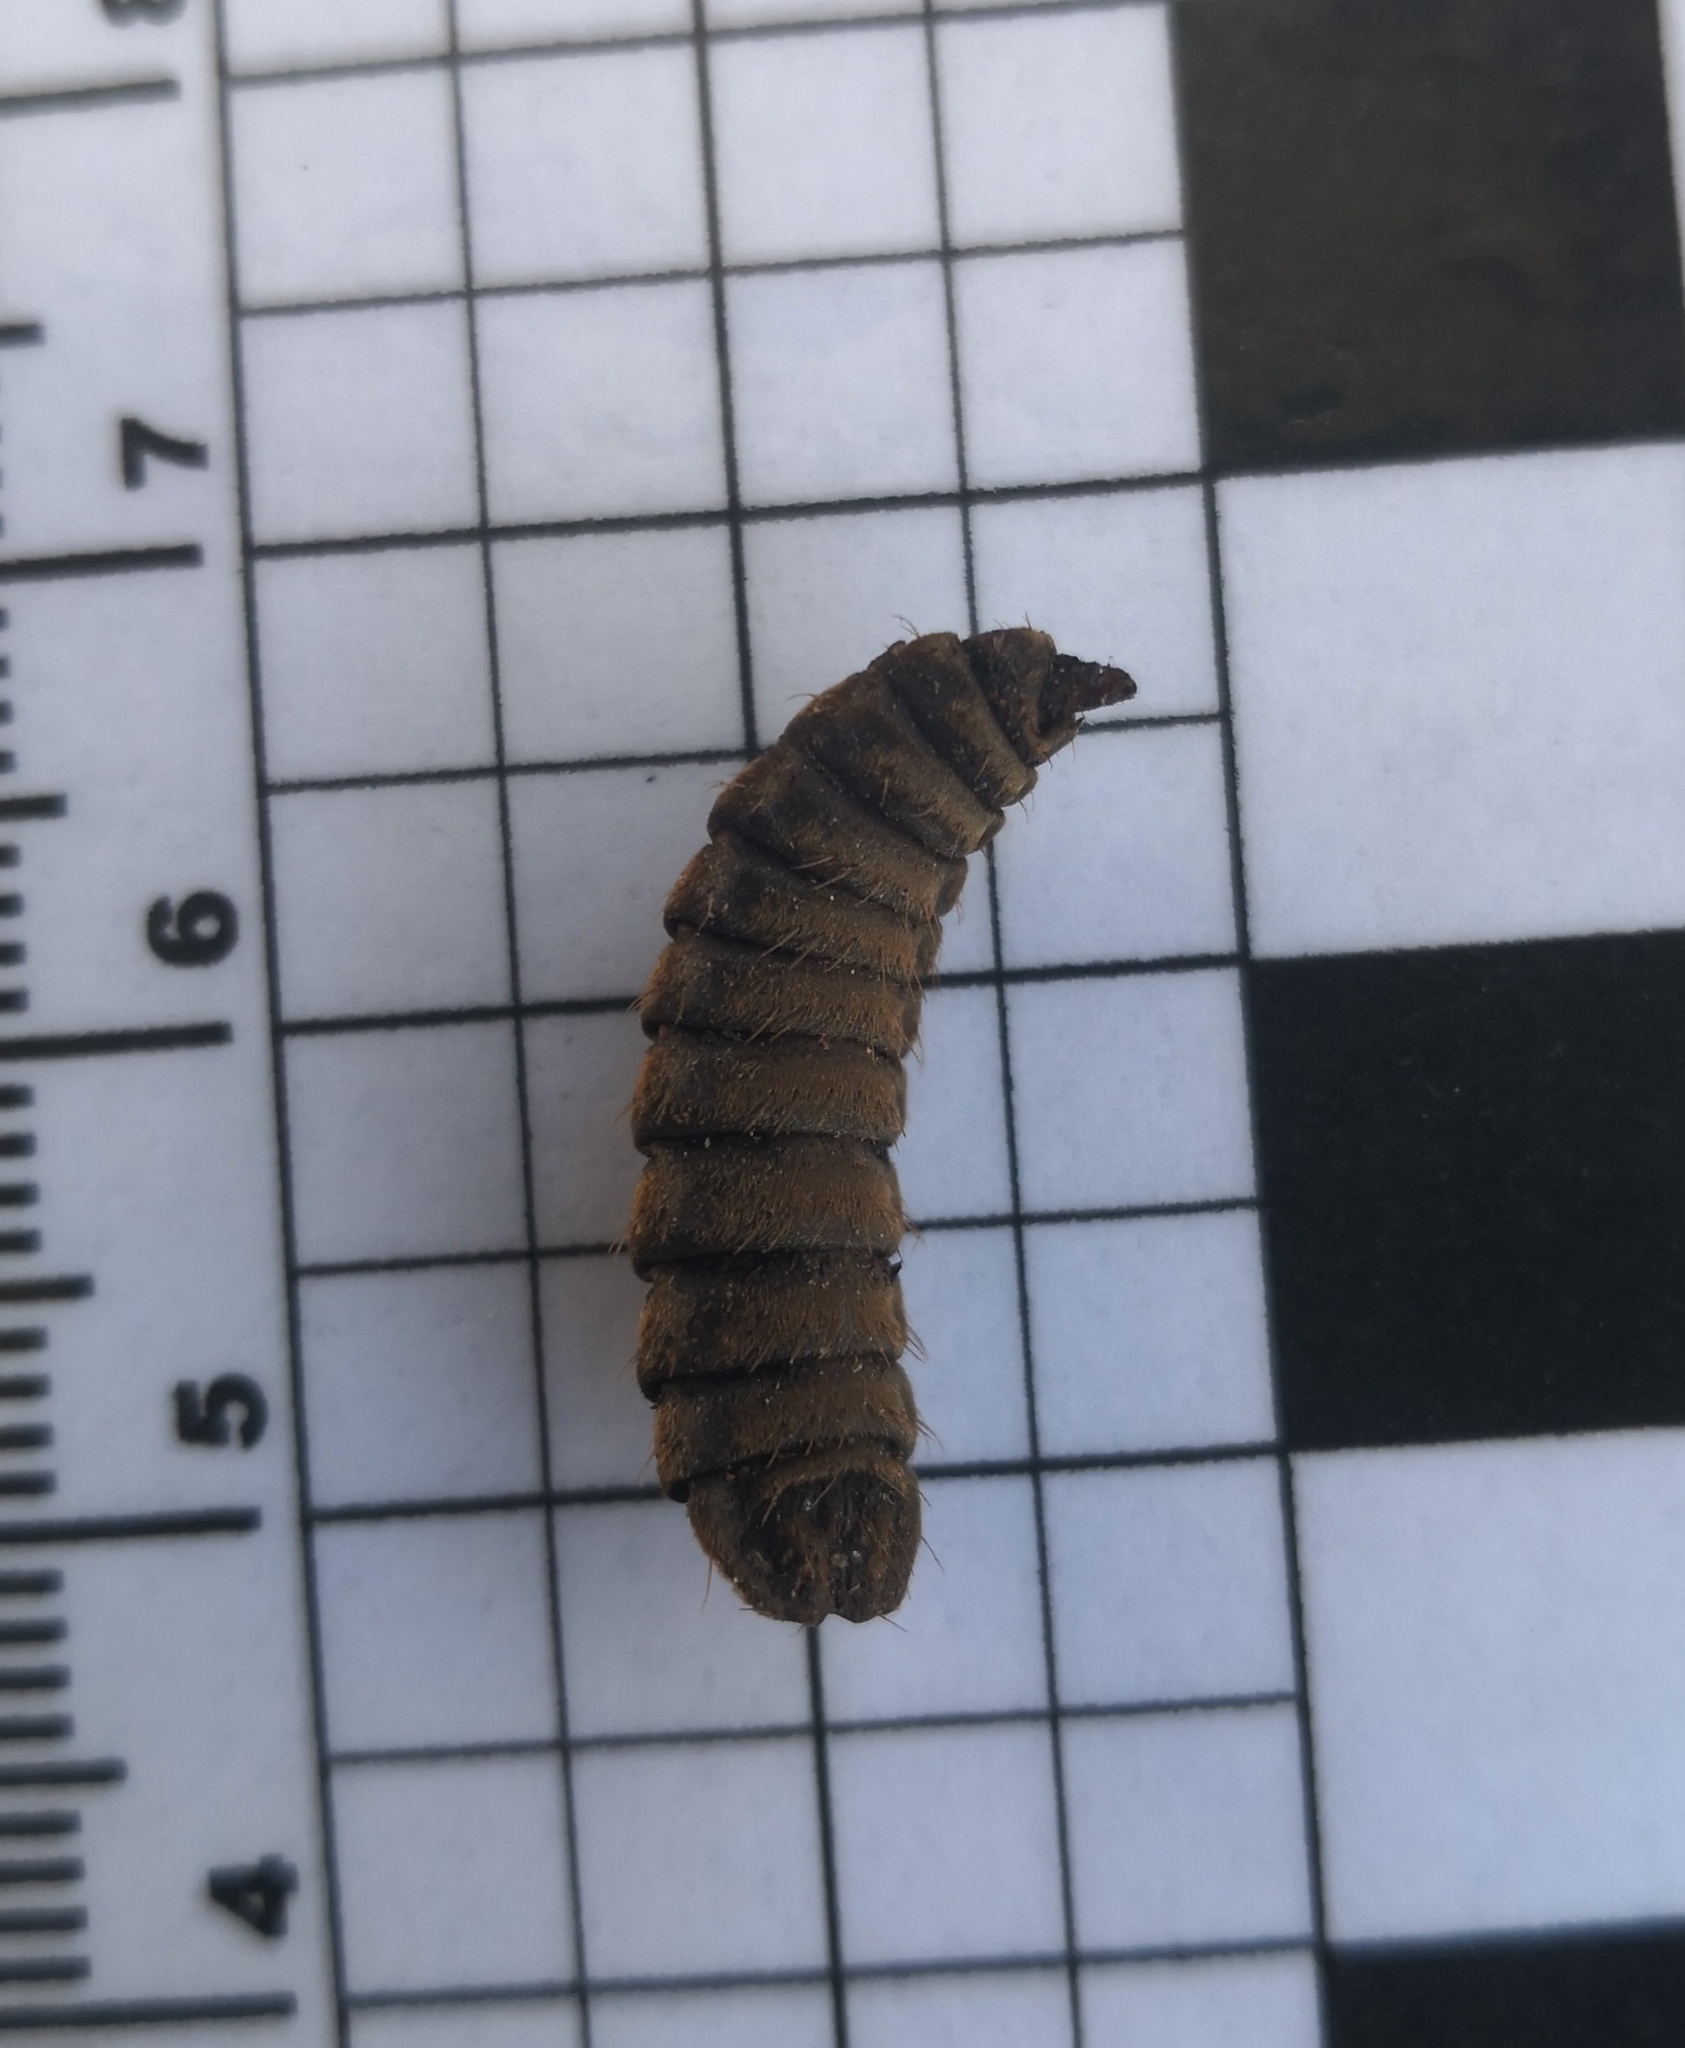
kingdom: Animalia
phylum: Arthropoda
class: Insecta
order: Diptera
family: Stratiomyidae
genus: Hermetia
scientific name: Hermetia illucens
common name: Black soldier fly
